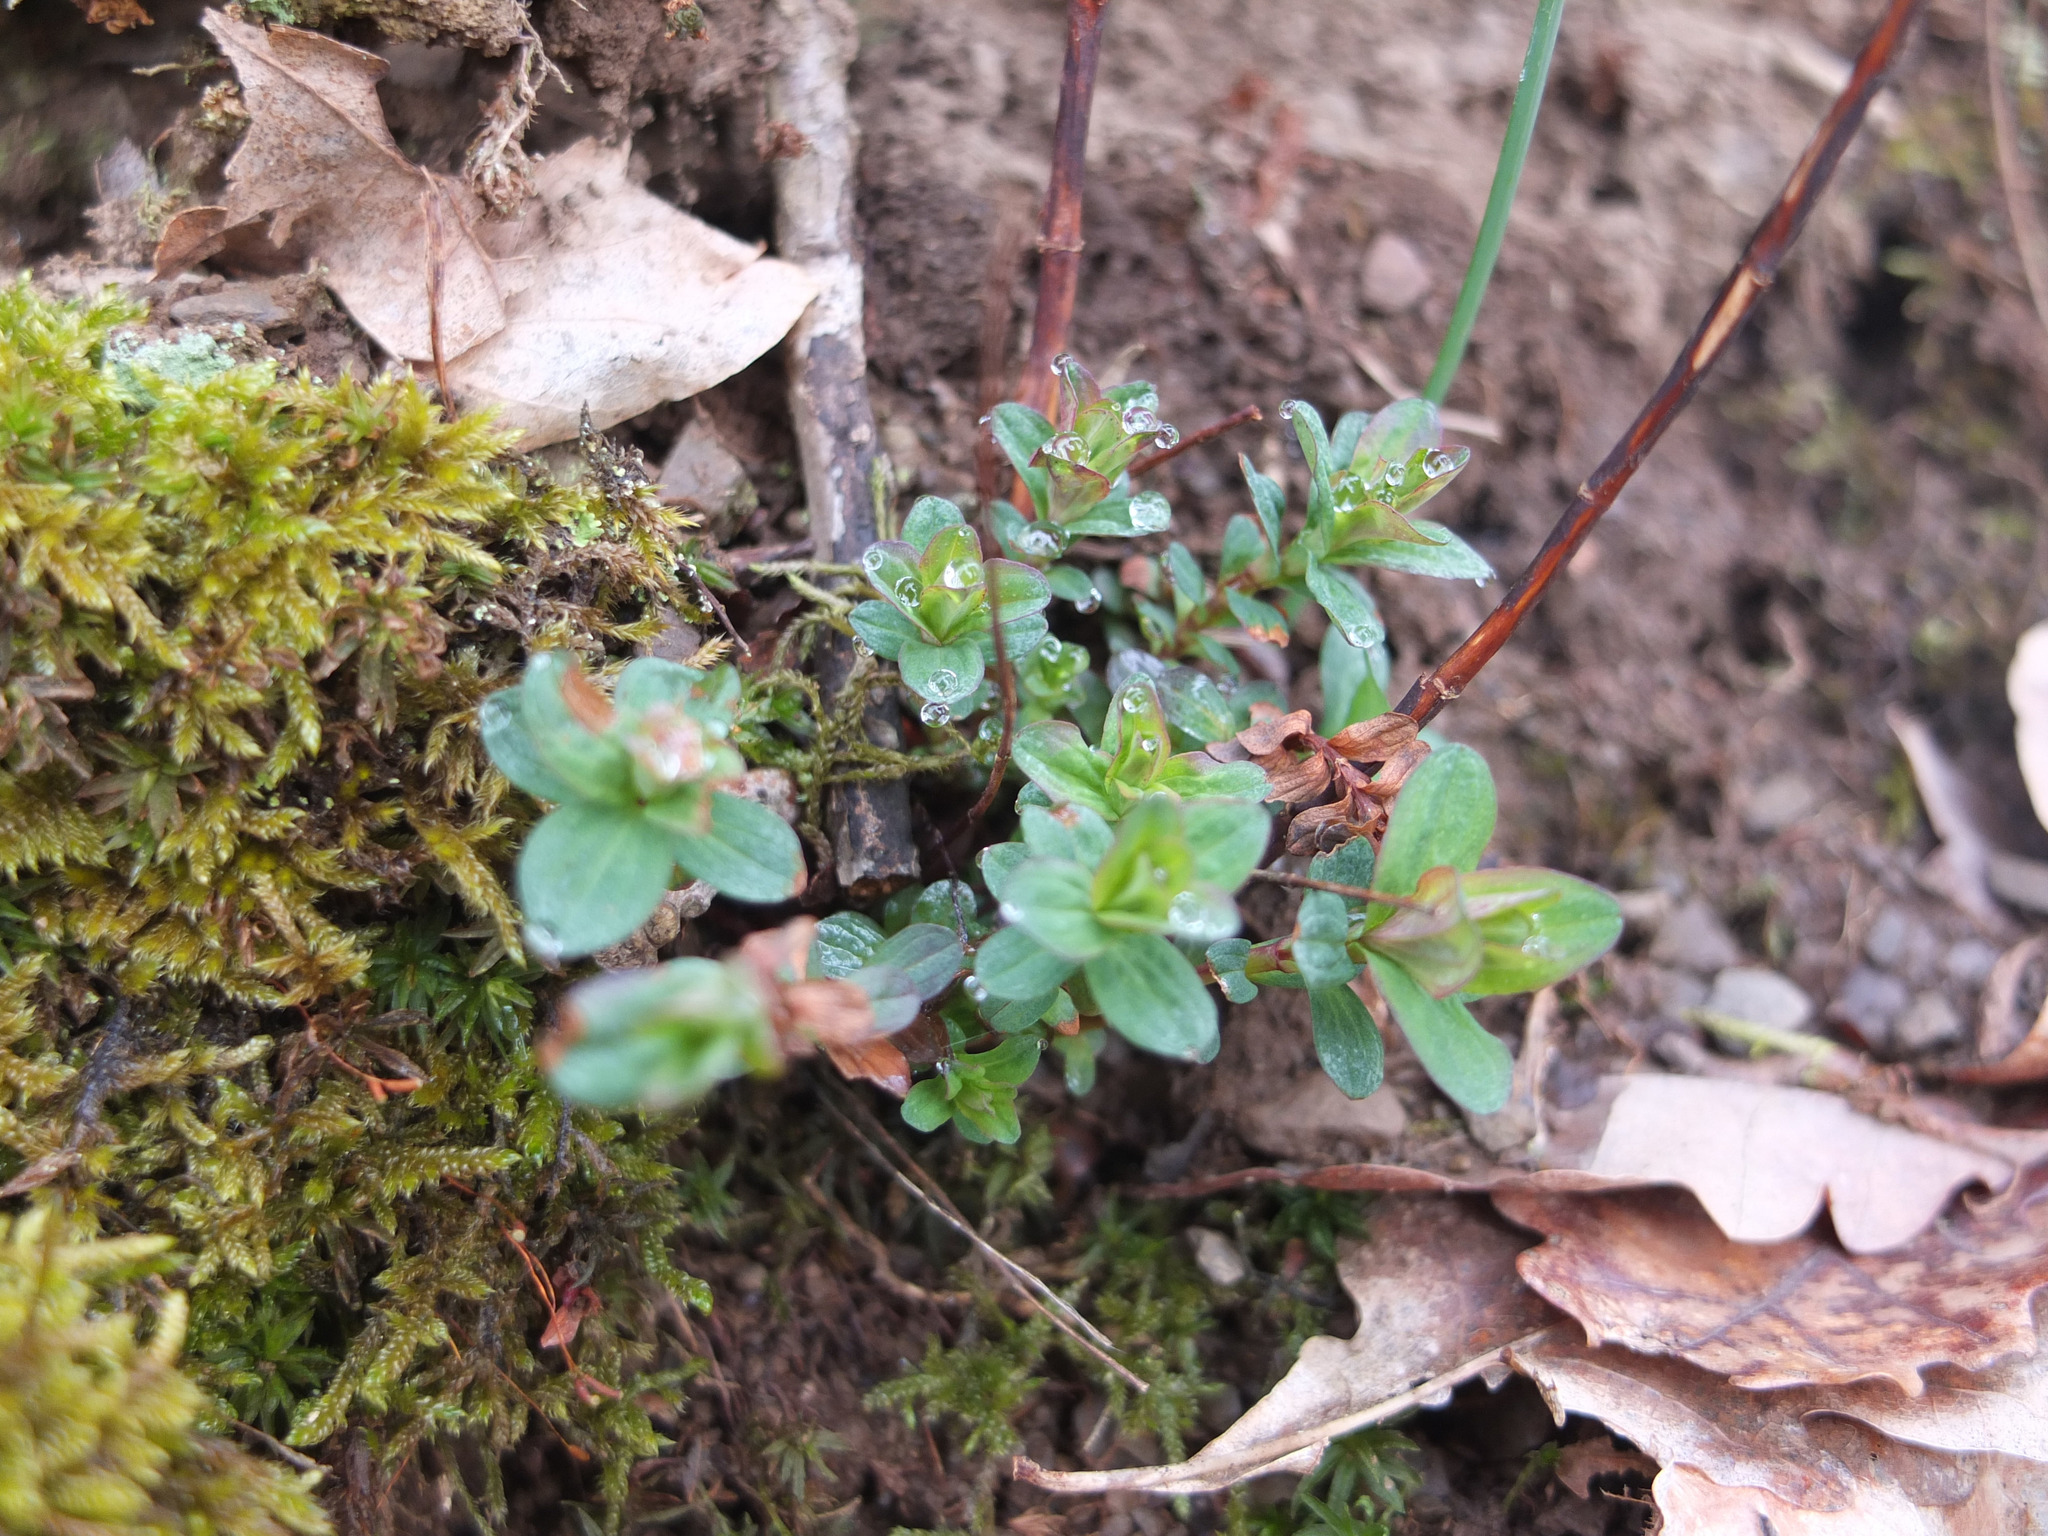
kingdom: Plantae
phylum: Tracheophyta
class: Magnoliopsida
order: Malpighiales
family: Hypericaceae
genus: Hypericum
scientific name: Hypericum perforatum
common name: Common st. johnswort
